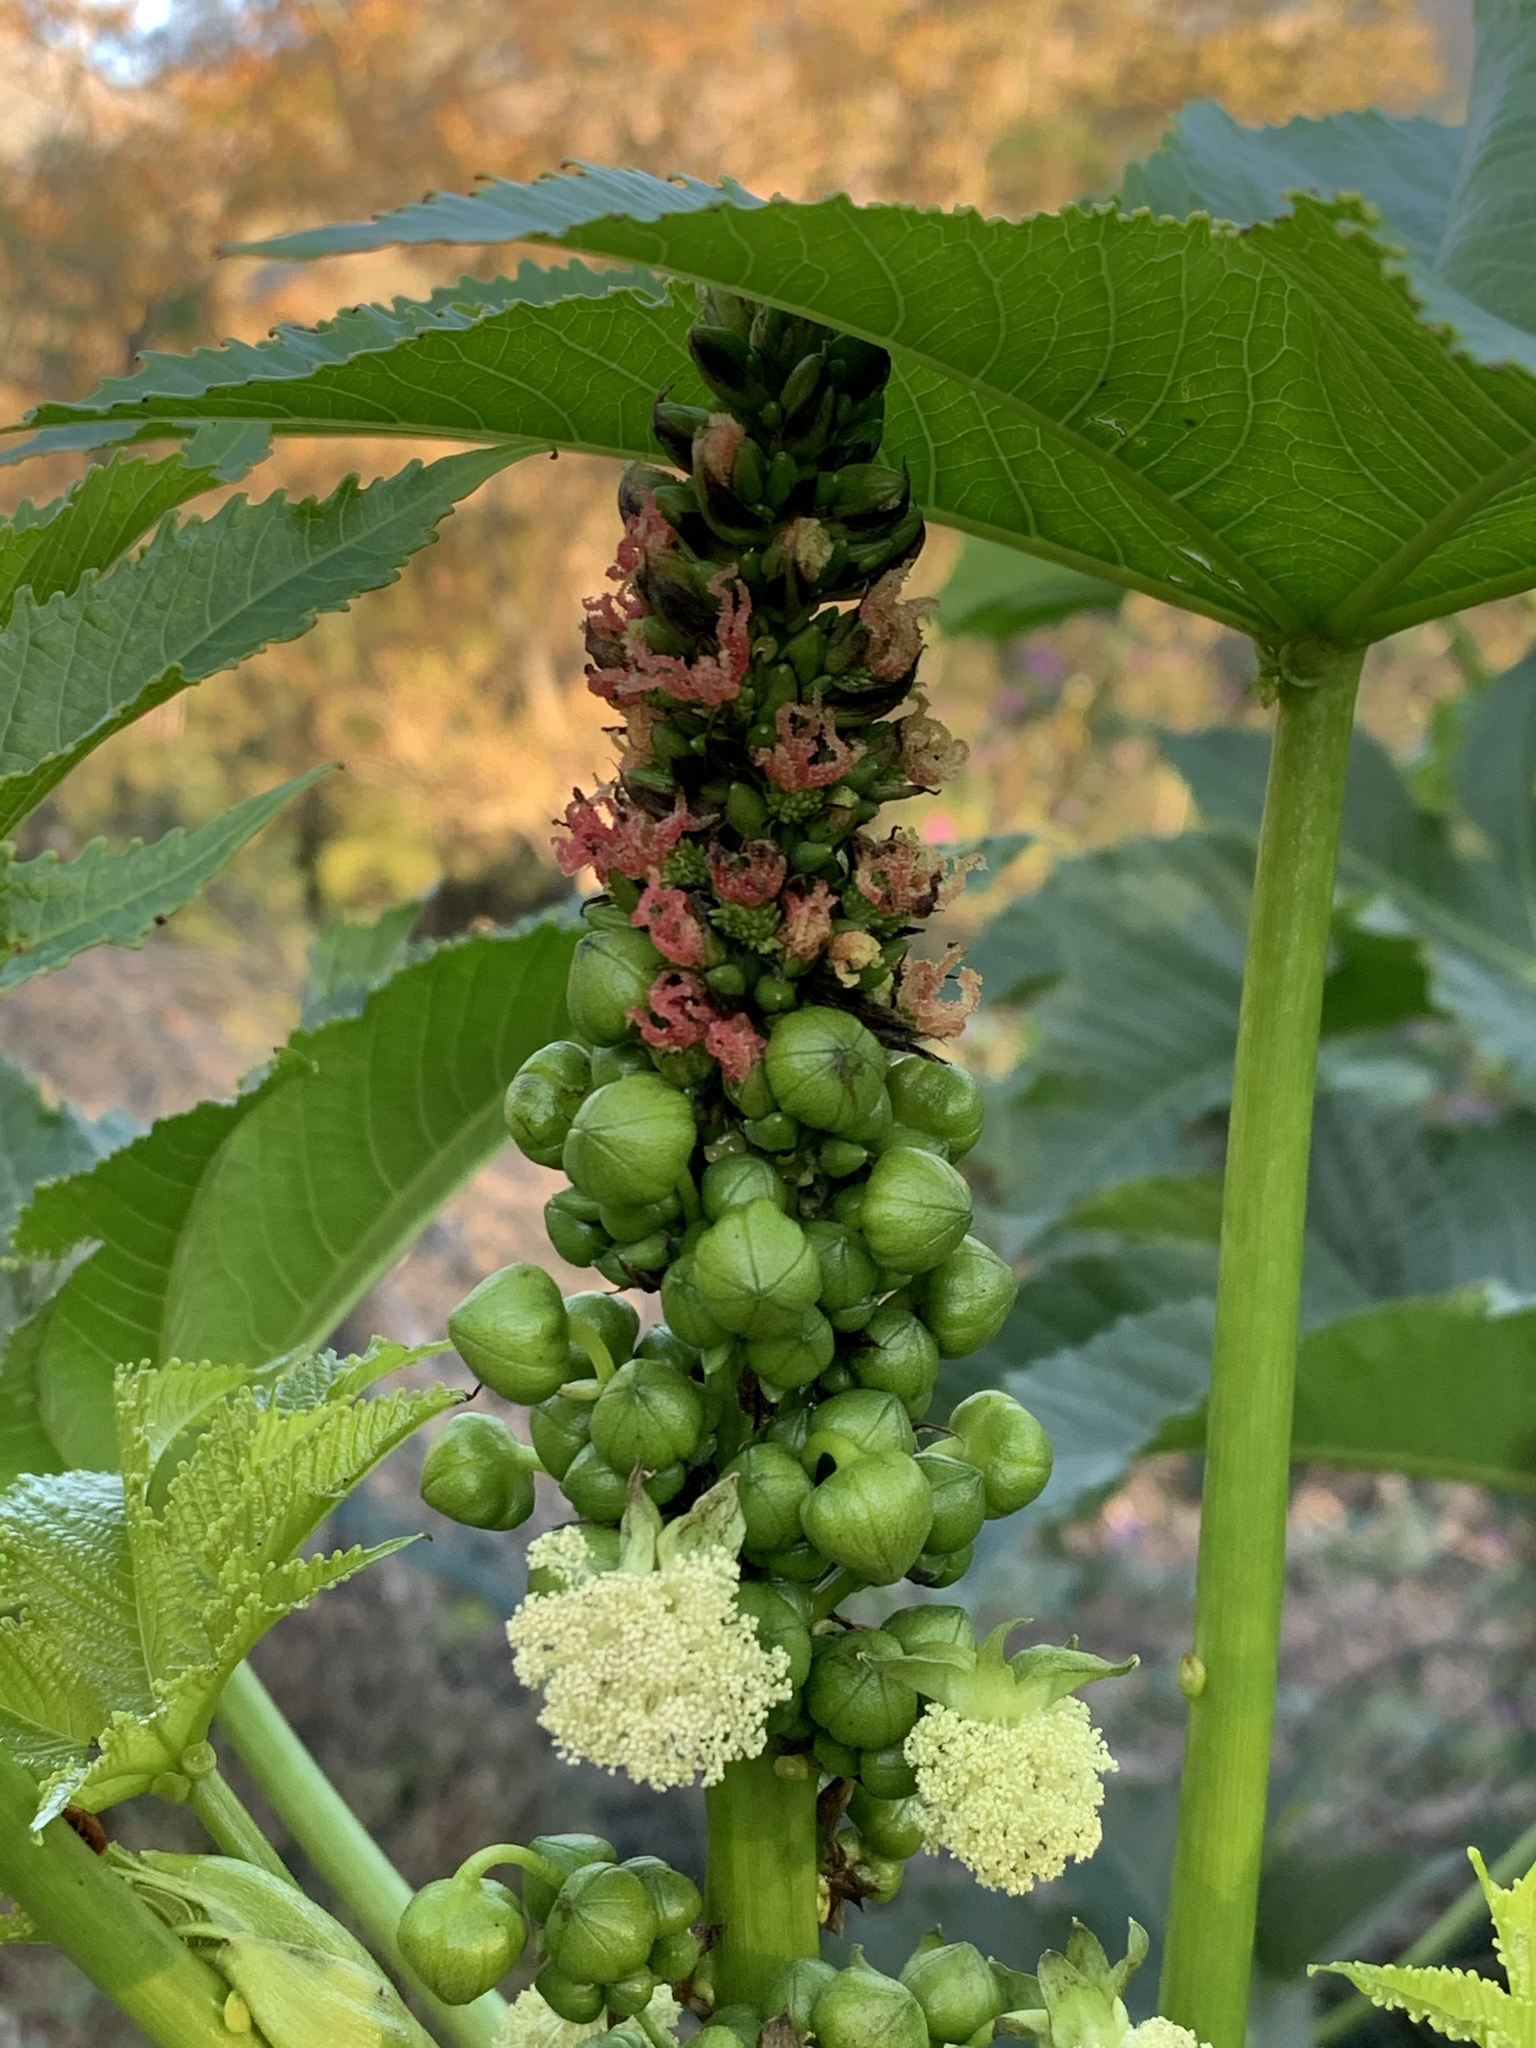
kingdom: Plantae
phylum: Tracheophyta
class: Magnoliopsida
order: Malpighiales
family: Euphorbiaceae
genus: Ricinus
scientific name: Ricinus communis
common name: Castor-oil-plant
